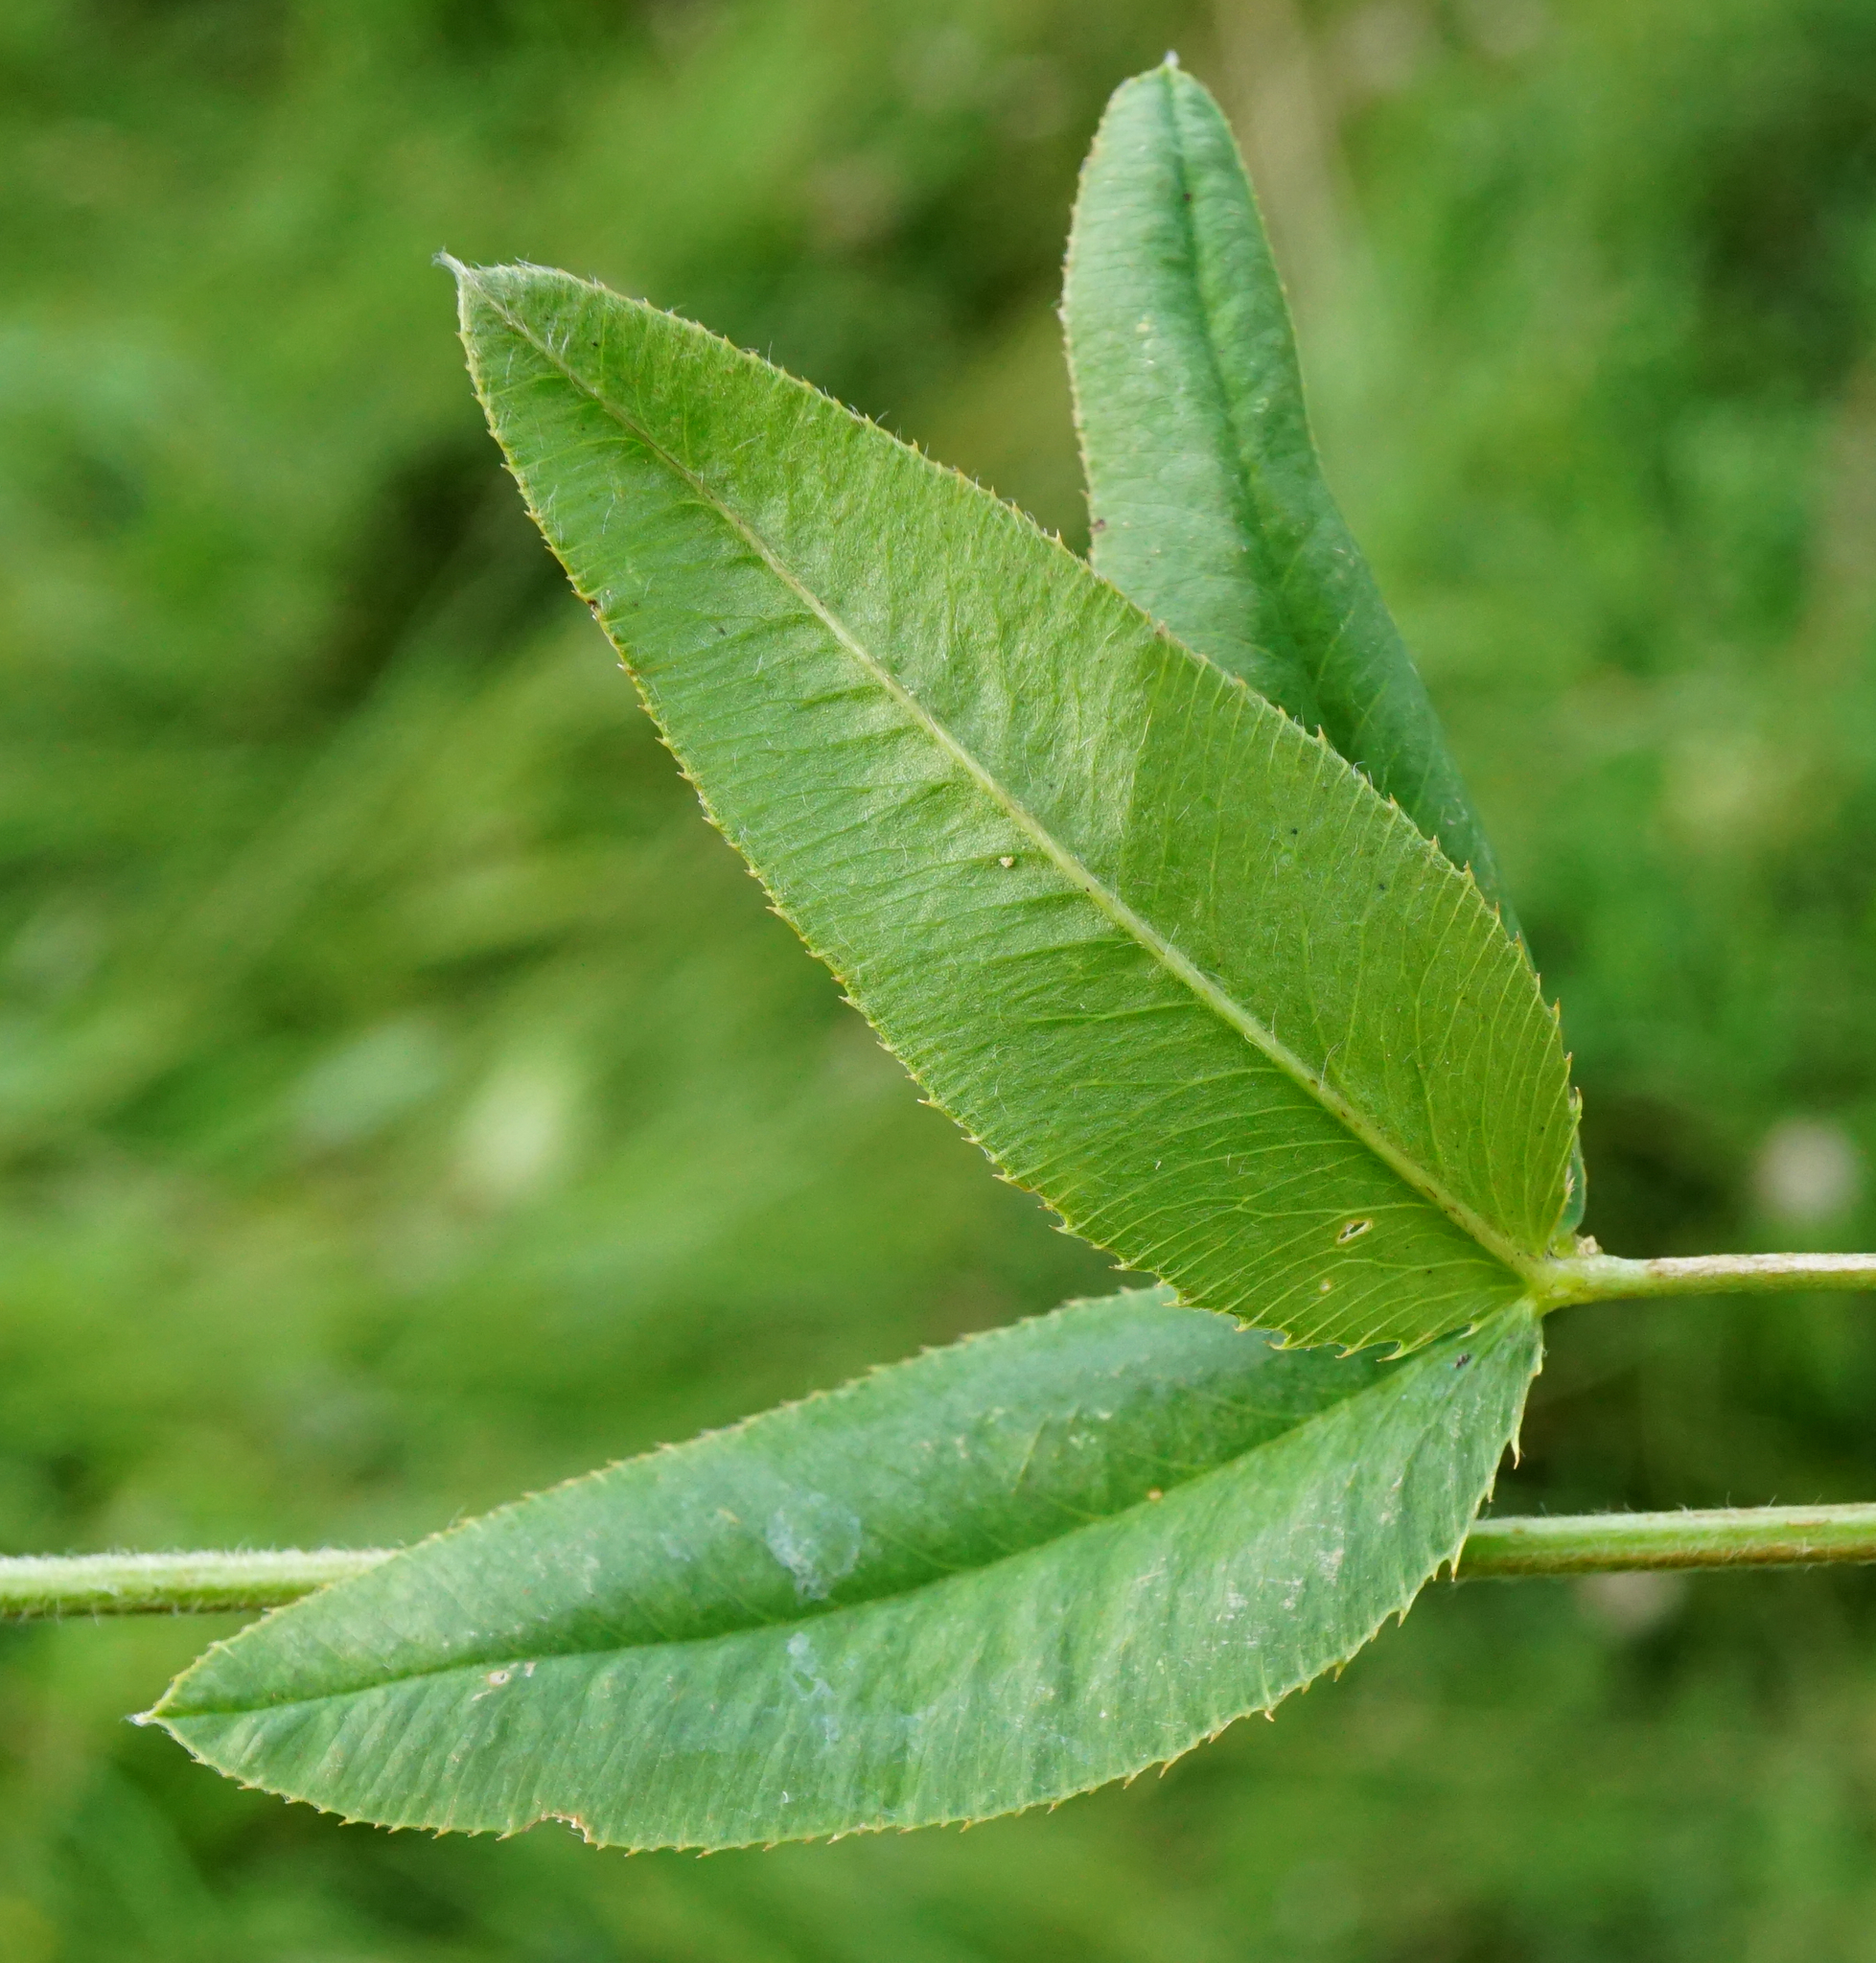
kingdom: Plantae
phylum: Tracheophyta
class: Magnoliopsida
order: Fabales
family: Fabaceae
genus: Trifolium
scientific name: Trifolium montanum
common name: Mountain clover
